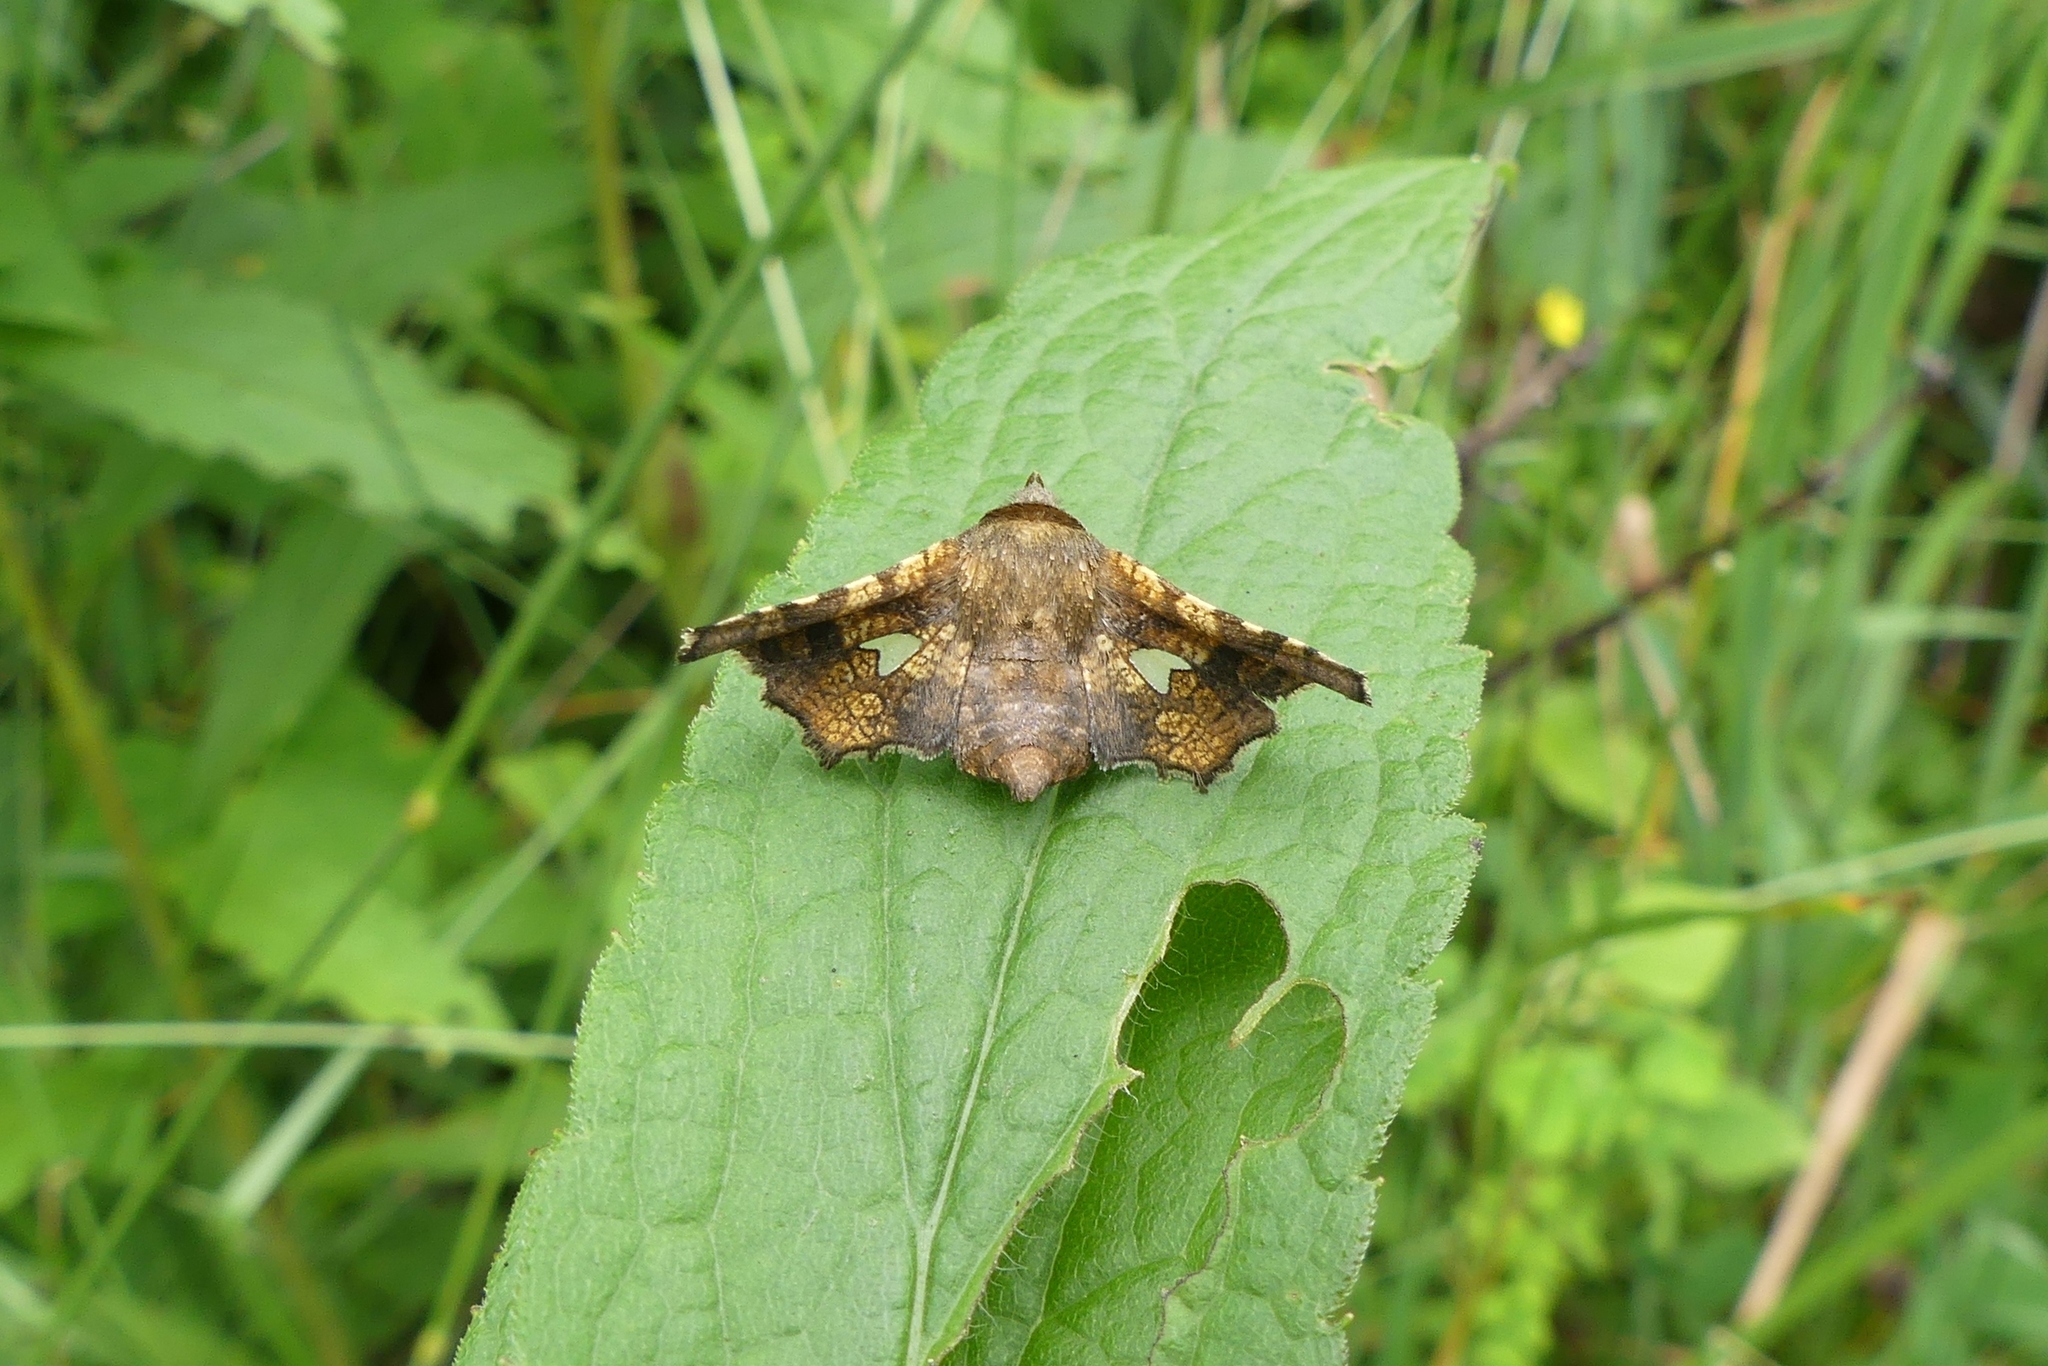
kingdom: Animalia
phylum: Arthropoda
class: Insecta
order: Lepidoptera
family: Thyrididae
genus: Dysodia
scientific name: Dysodia oculatana
